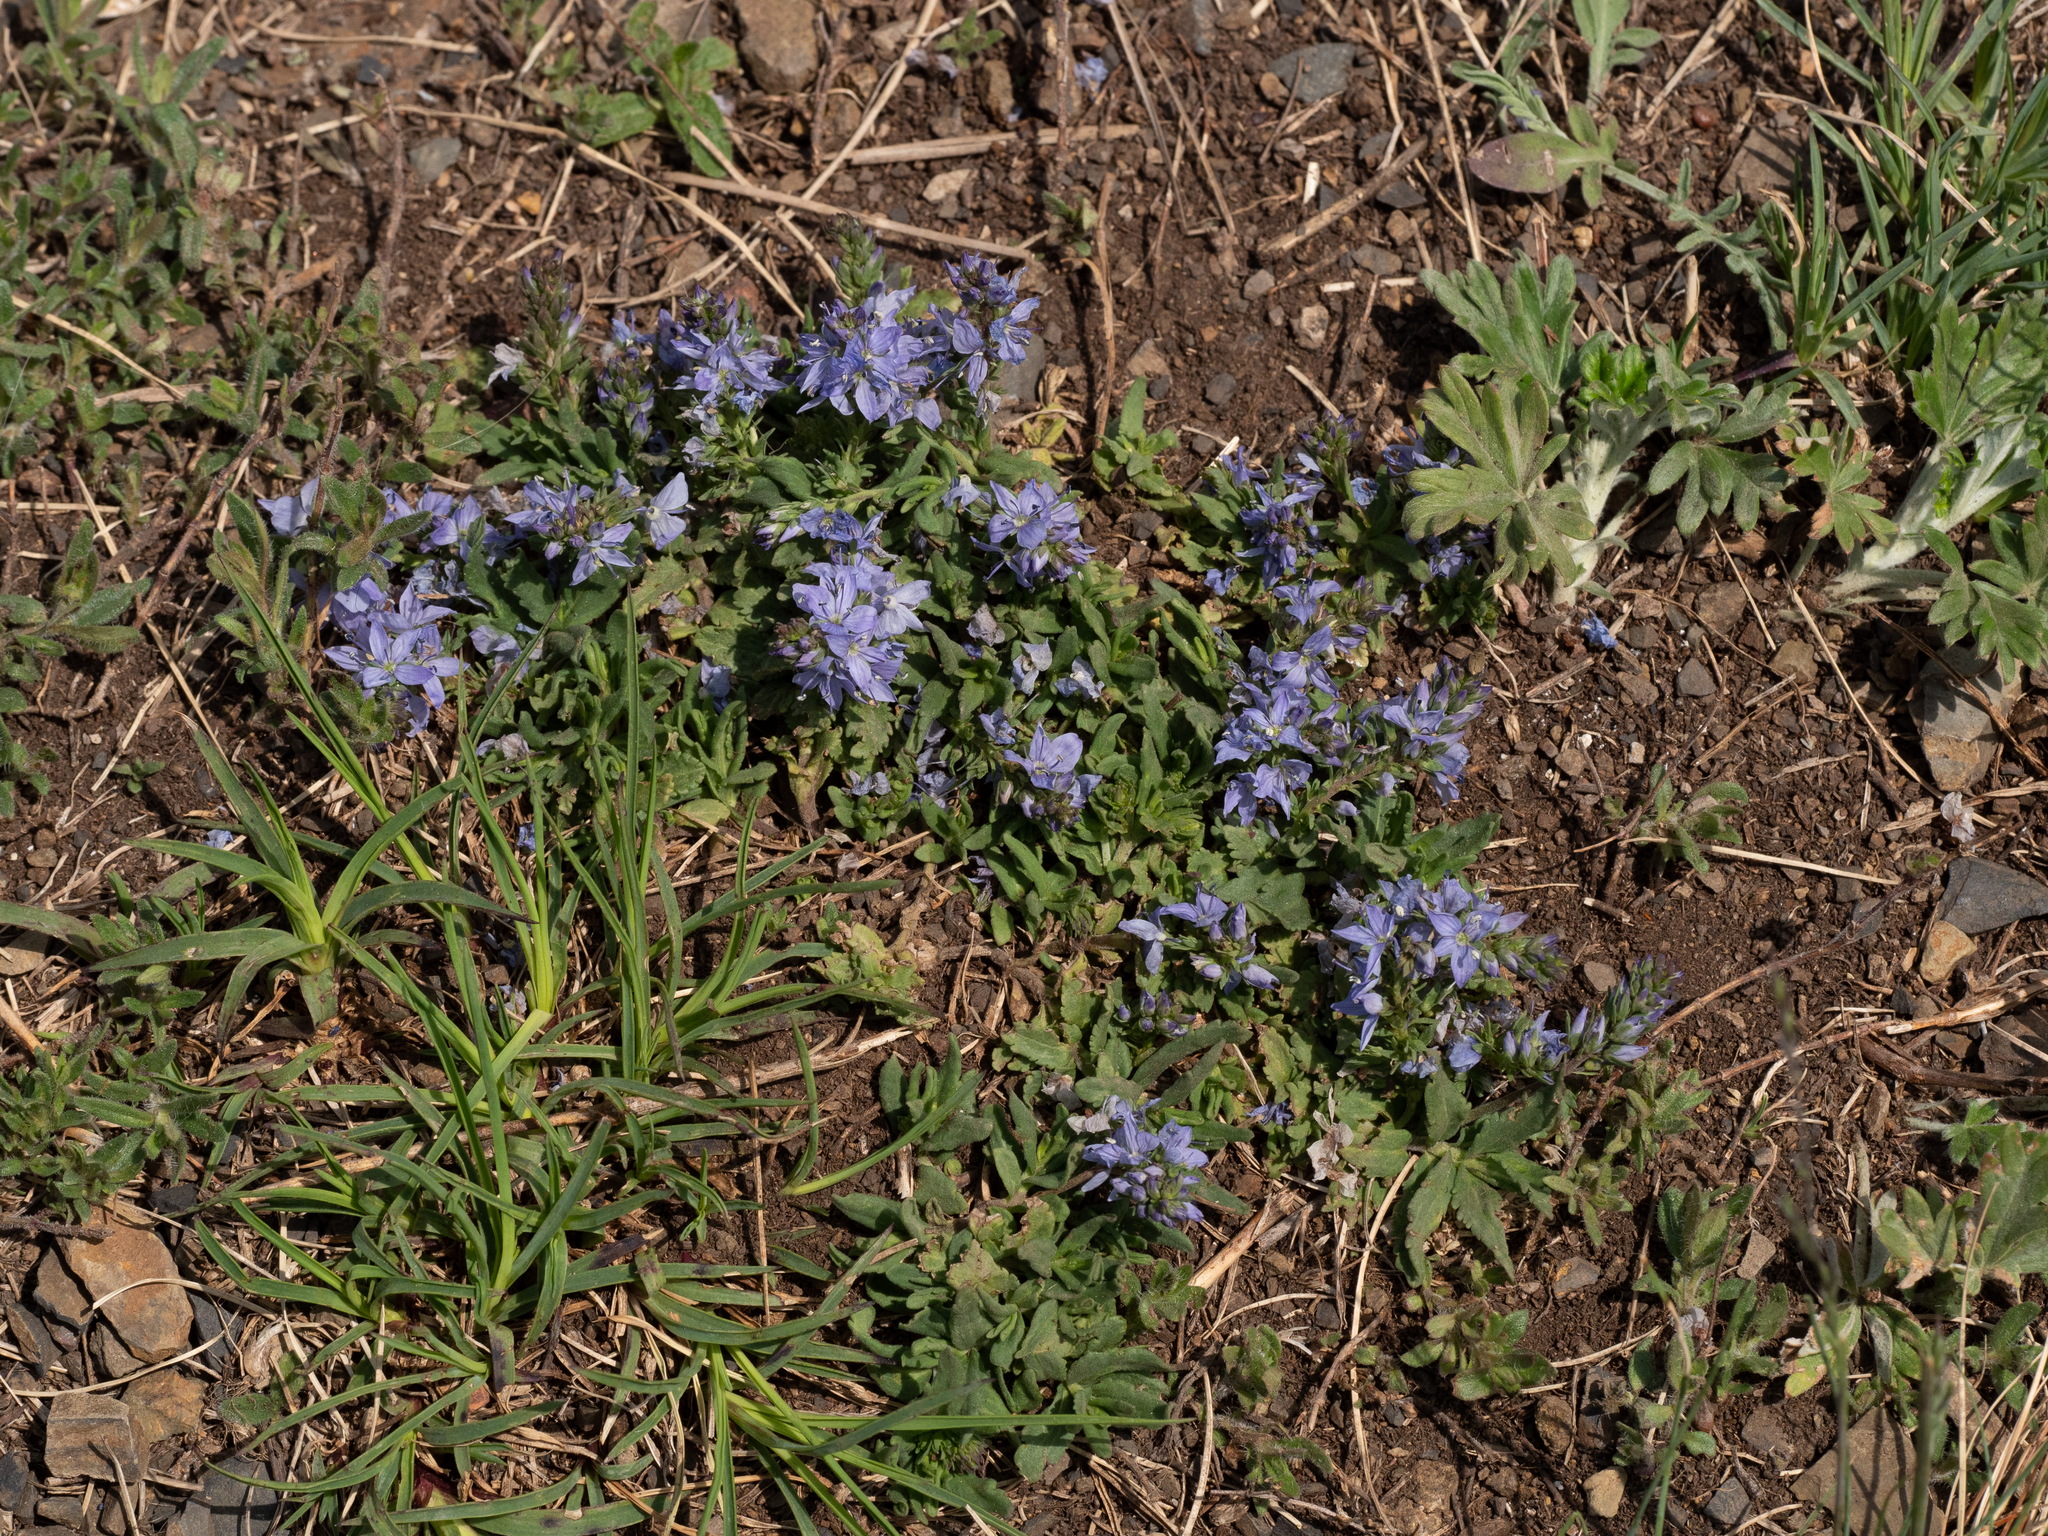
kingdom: Plantae
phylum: Tracheophyta
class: Magnoliopsida
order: Lamiales
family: Plantaginaceae
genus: Veronica
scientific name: Veronica prostrata
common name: Prostrate speedwell
